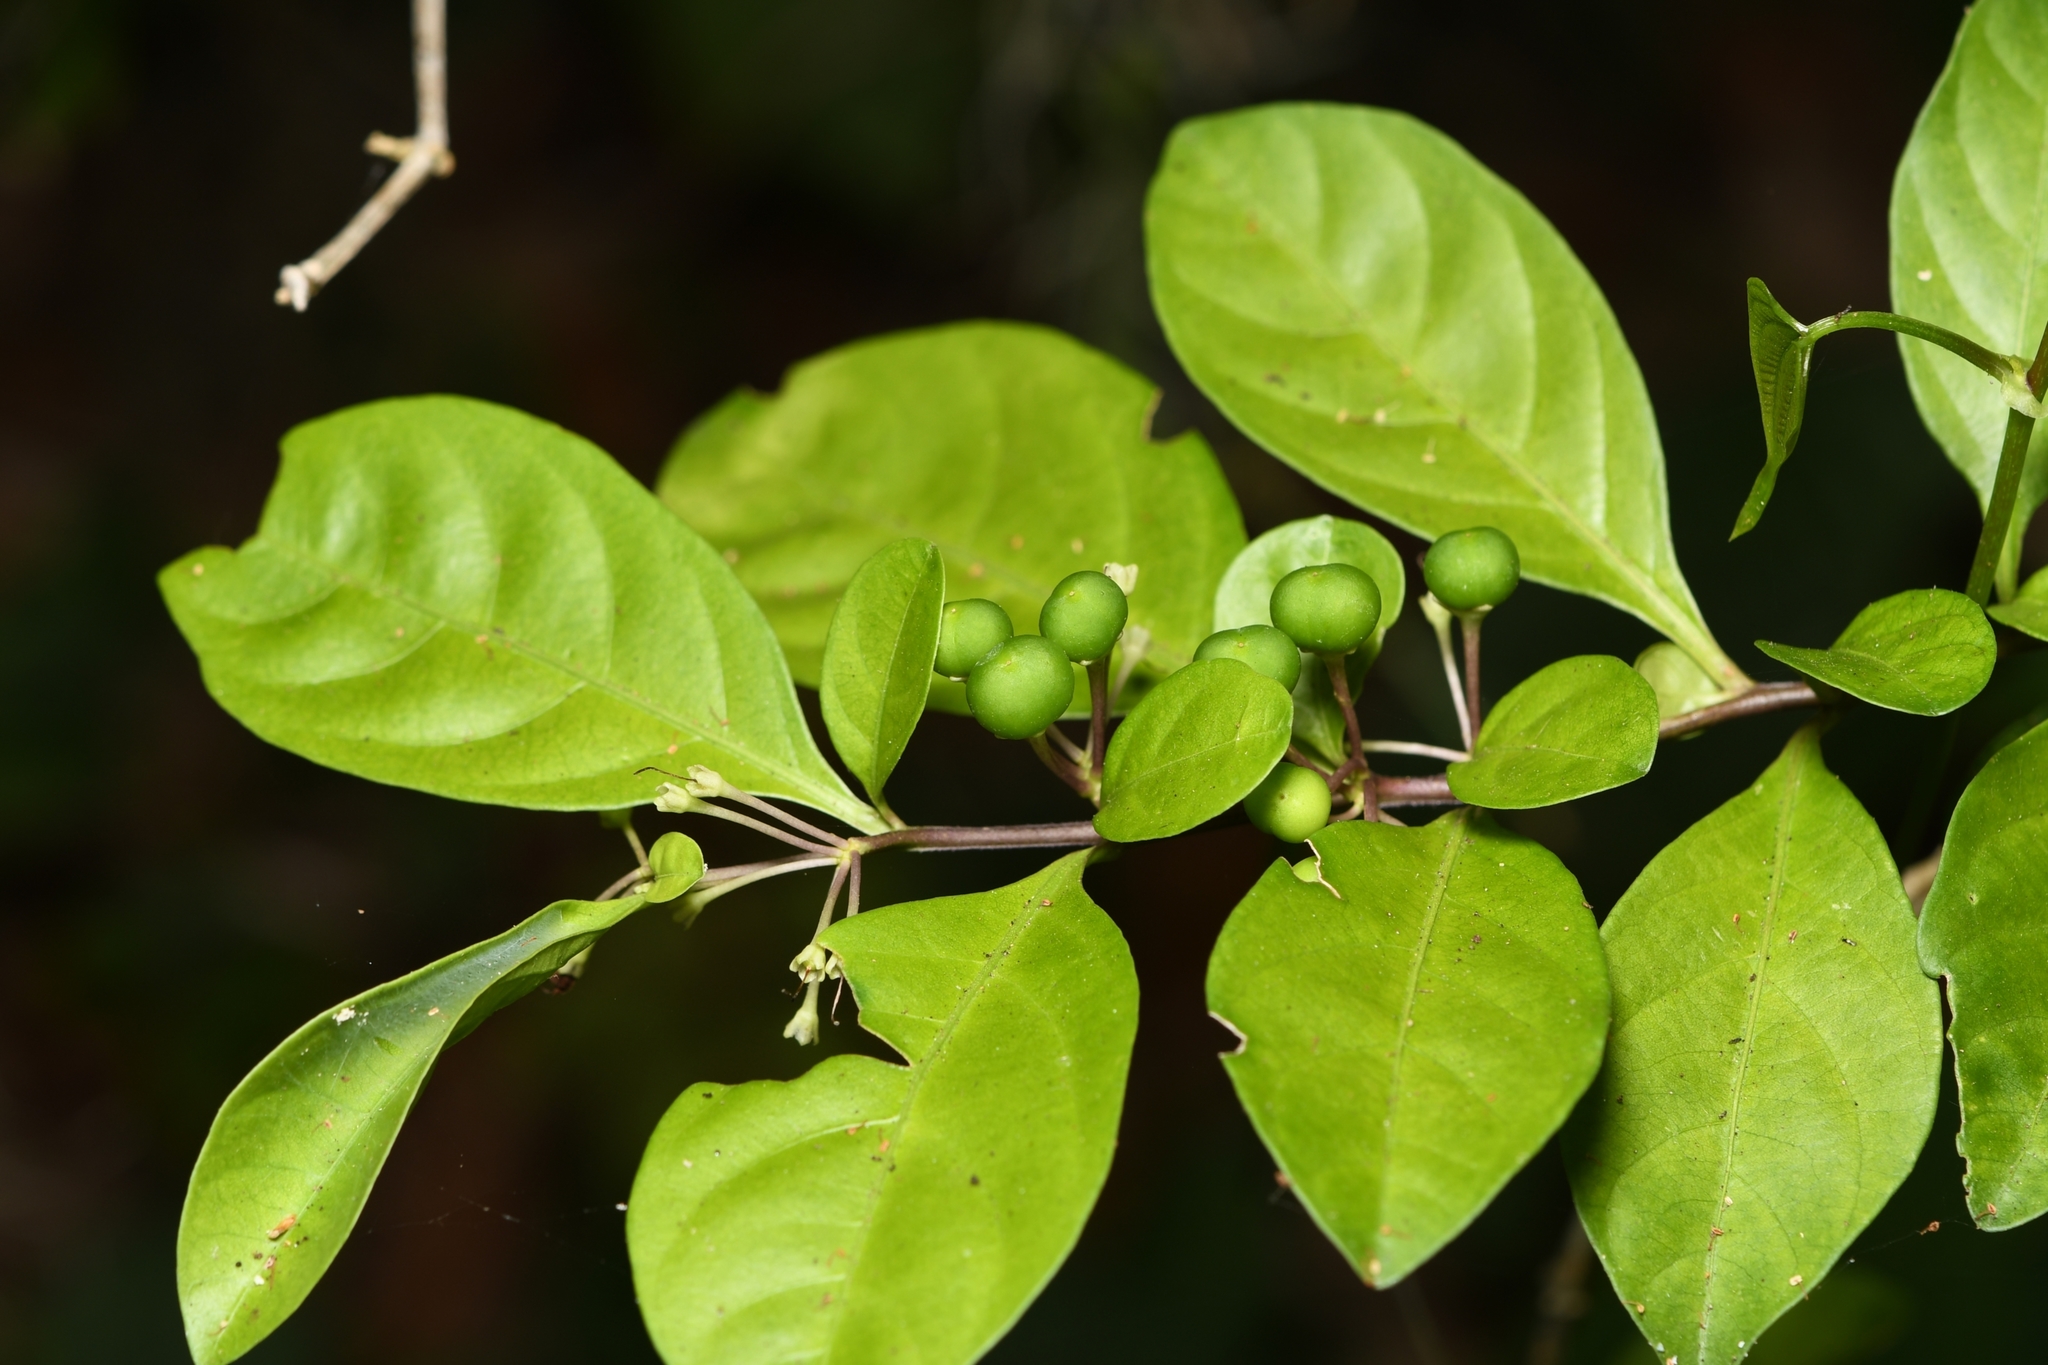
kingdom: Plantae
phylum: Tracheophyta
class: Magnoliopsida
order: Solanales
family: Solanaceae
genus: Solanum
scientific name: Solanum diphyllum
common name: Twoleaf nightshade
